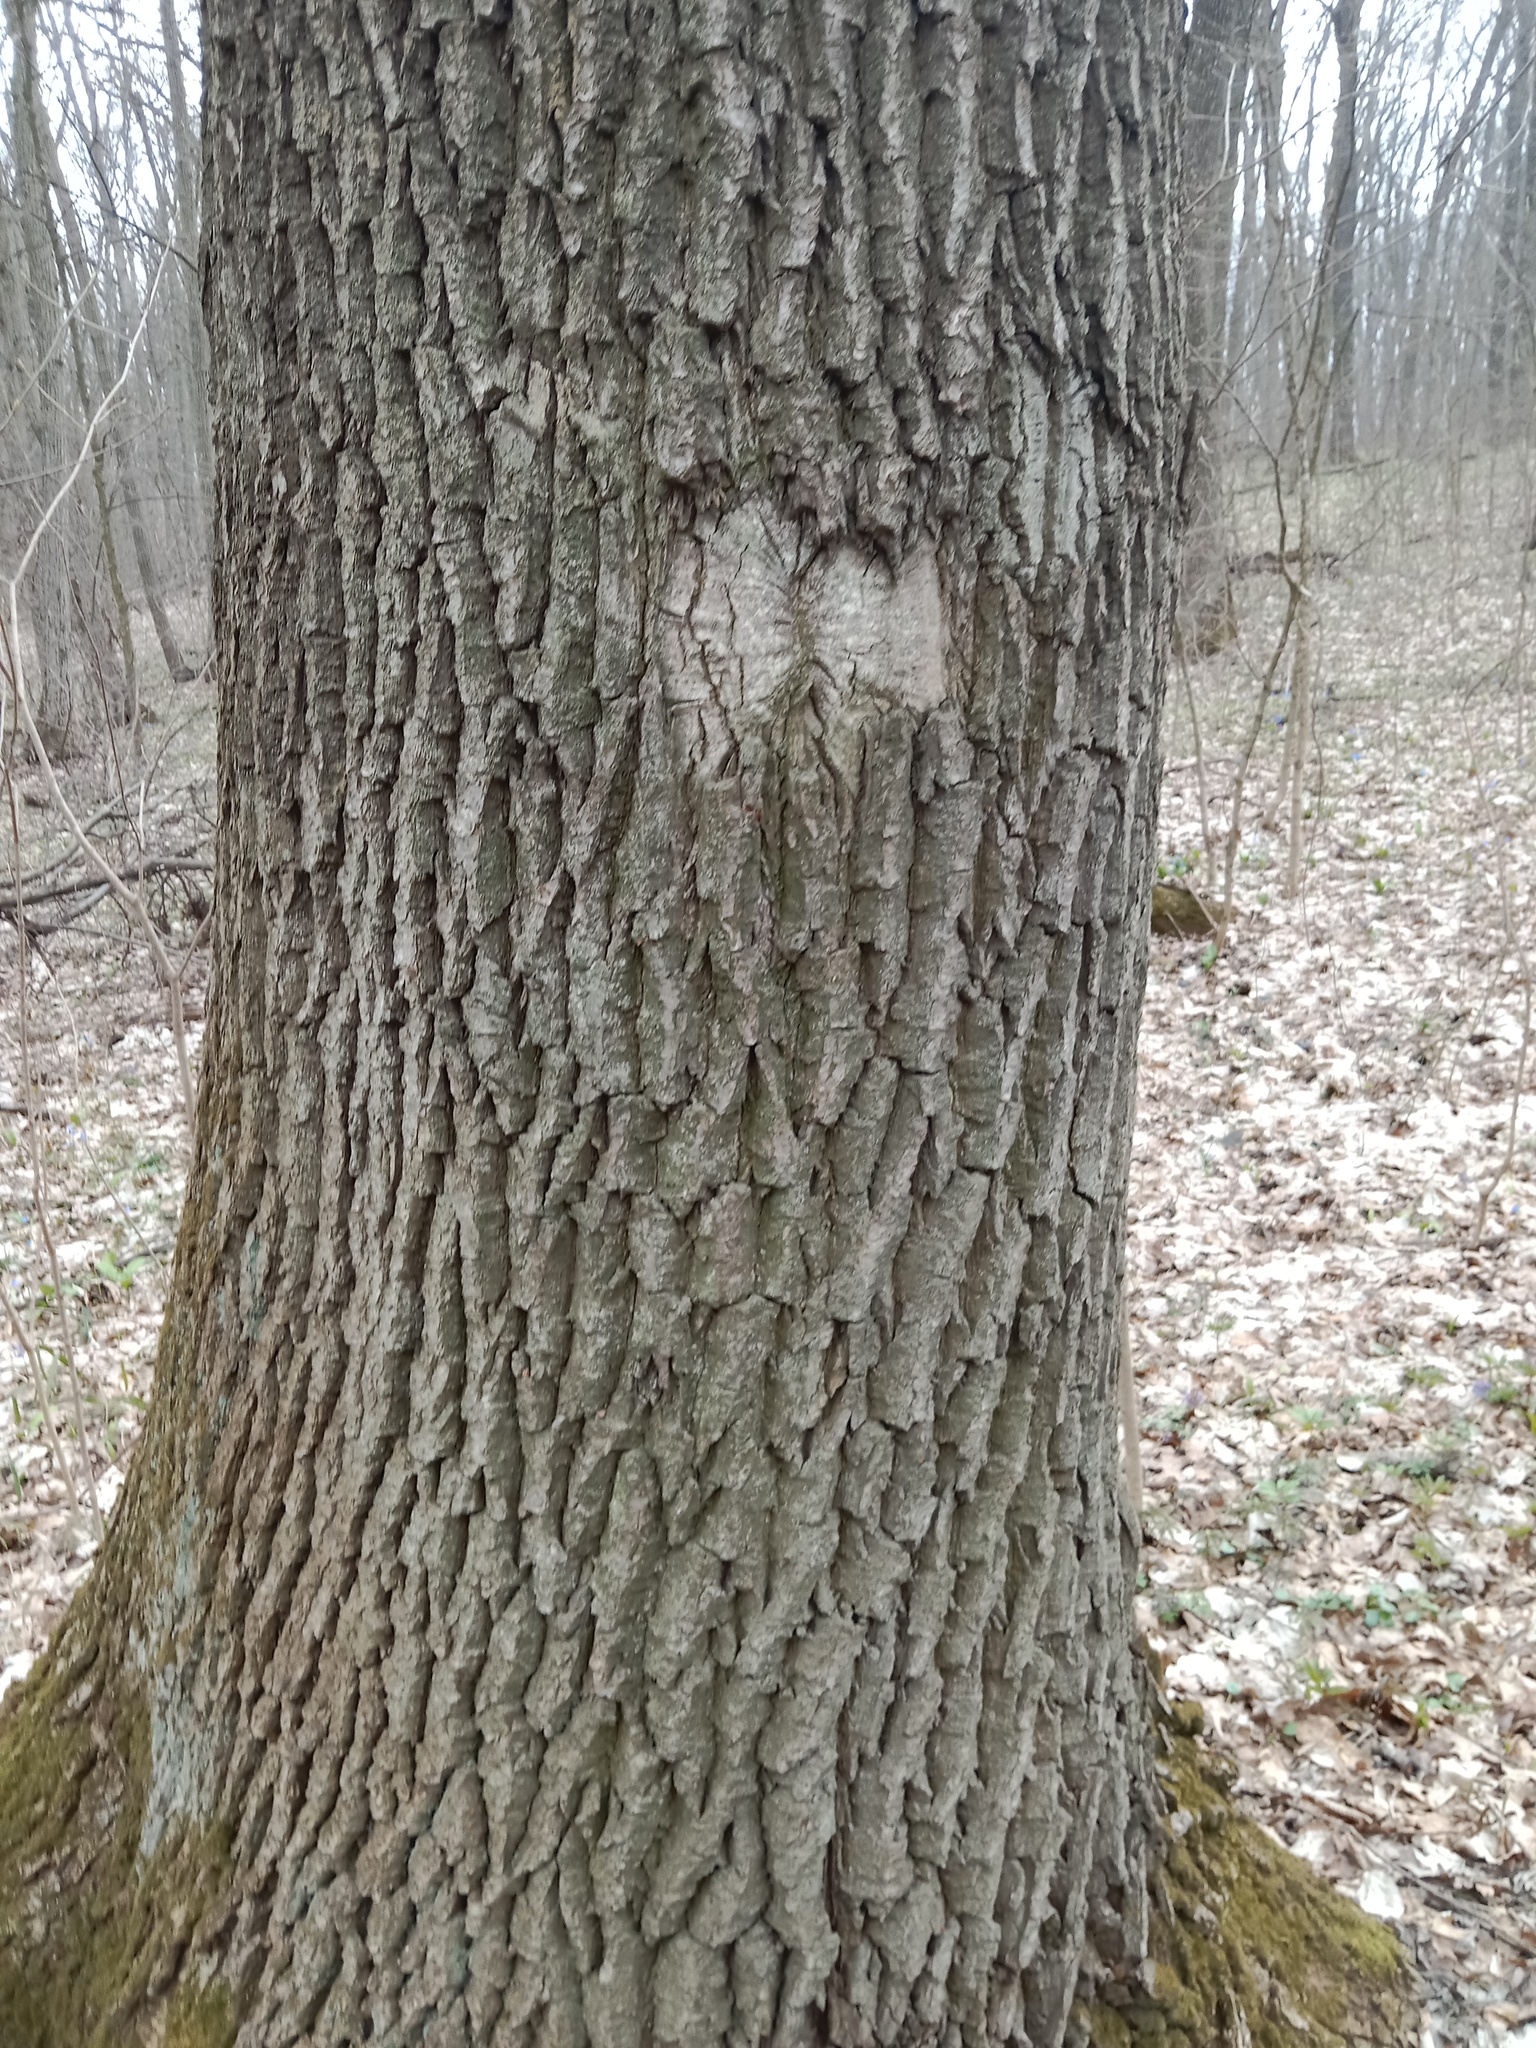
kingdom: Plantae
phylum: Tracheophyta
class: Magnoliopsida
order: Fagales
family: Fagaceae
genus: Quercus
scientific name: Quercus robur
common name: Pedunculate oak
